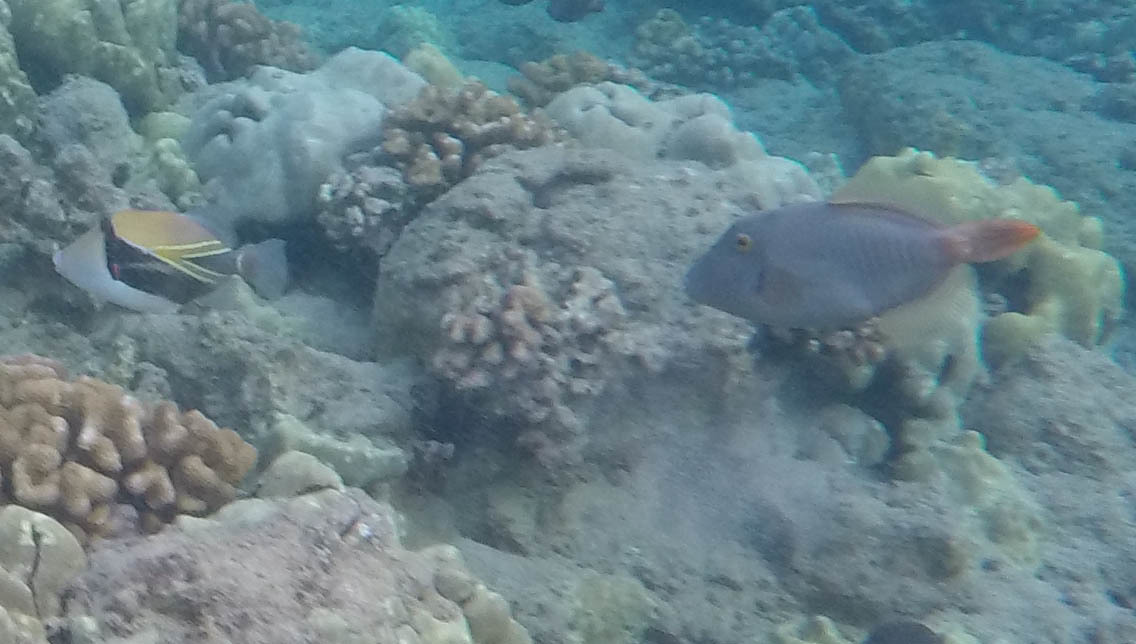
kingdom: Animalia
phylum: Chordata
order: Tetraodontiformes
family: Monacanthidae
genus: Cantherhines
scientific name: Cantherhines dumerilii
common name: Barred filefish
